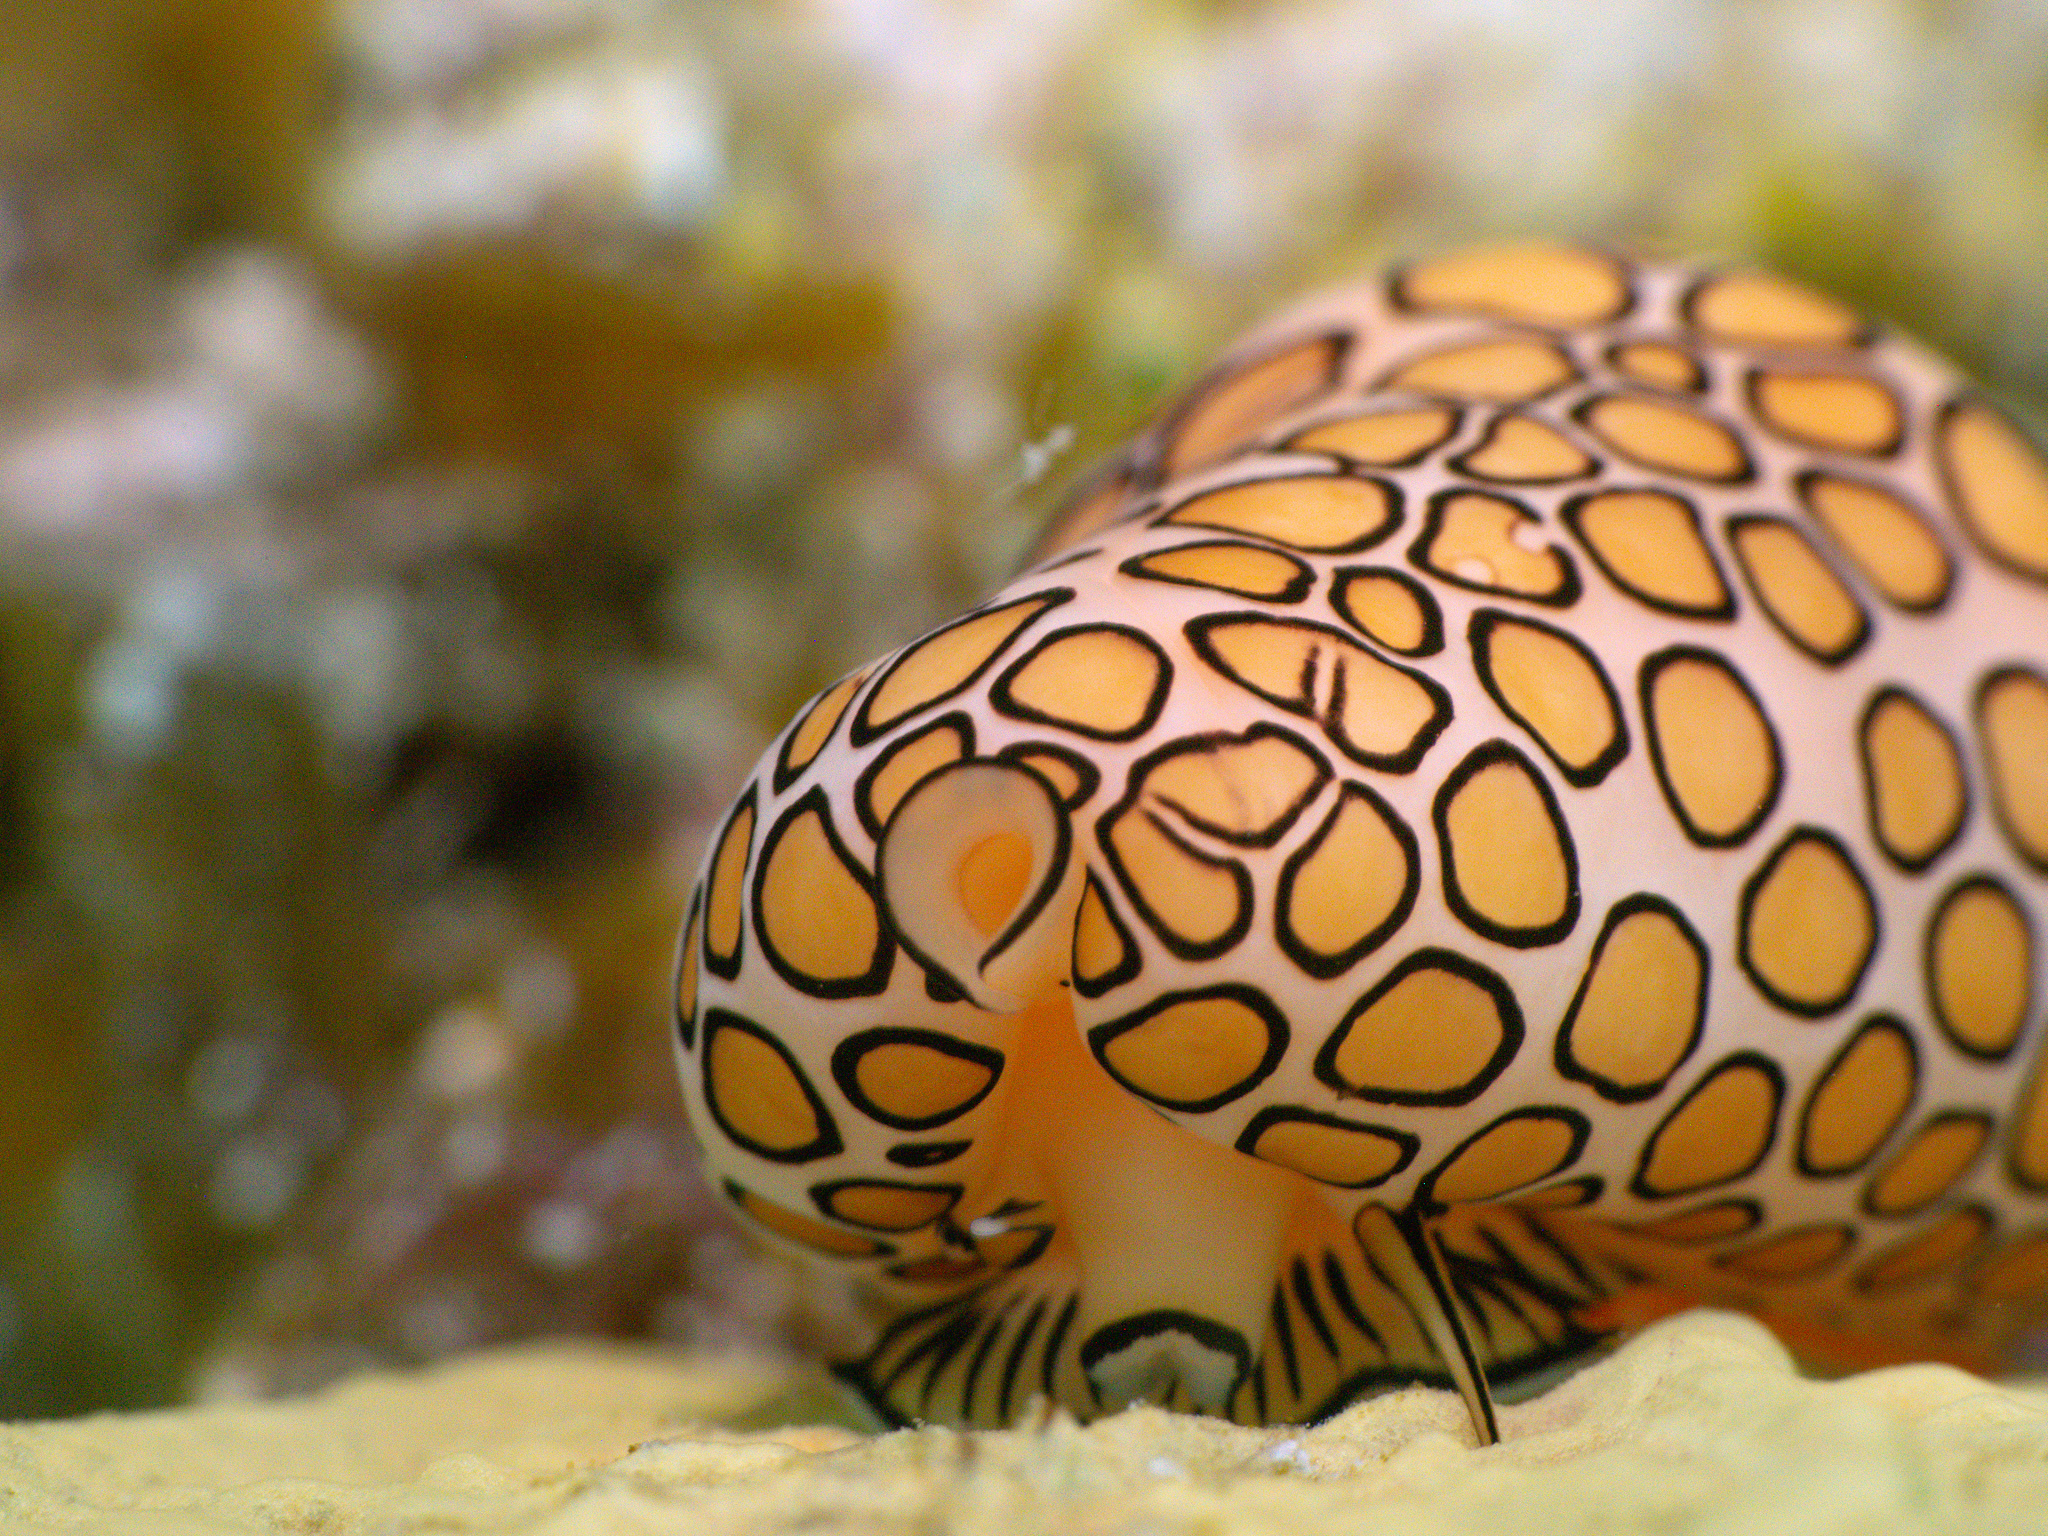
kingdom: Animalia
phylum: Mollusca
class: Gastropoda
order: Littorinimorpha
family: Ovulidae
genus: Cyphoma
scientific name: Cyphoma gibbosum
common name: Flamingo tongue
